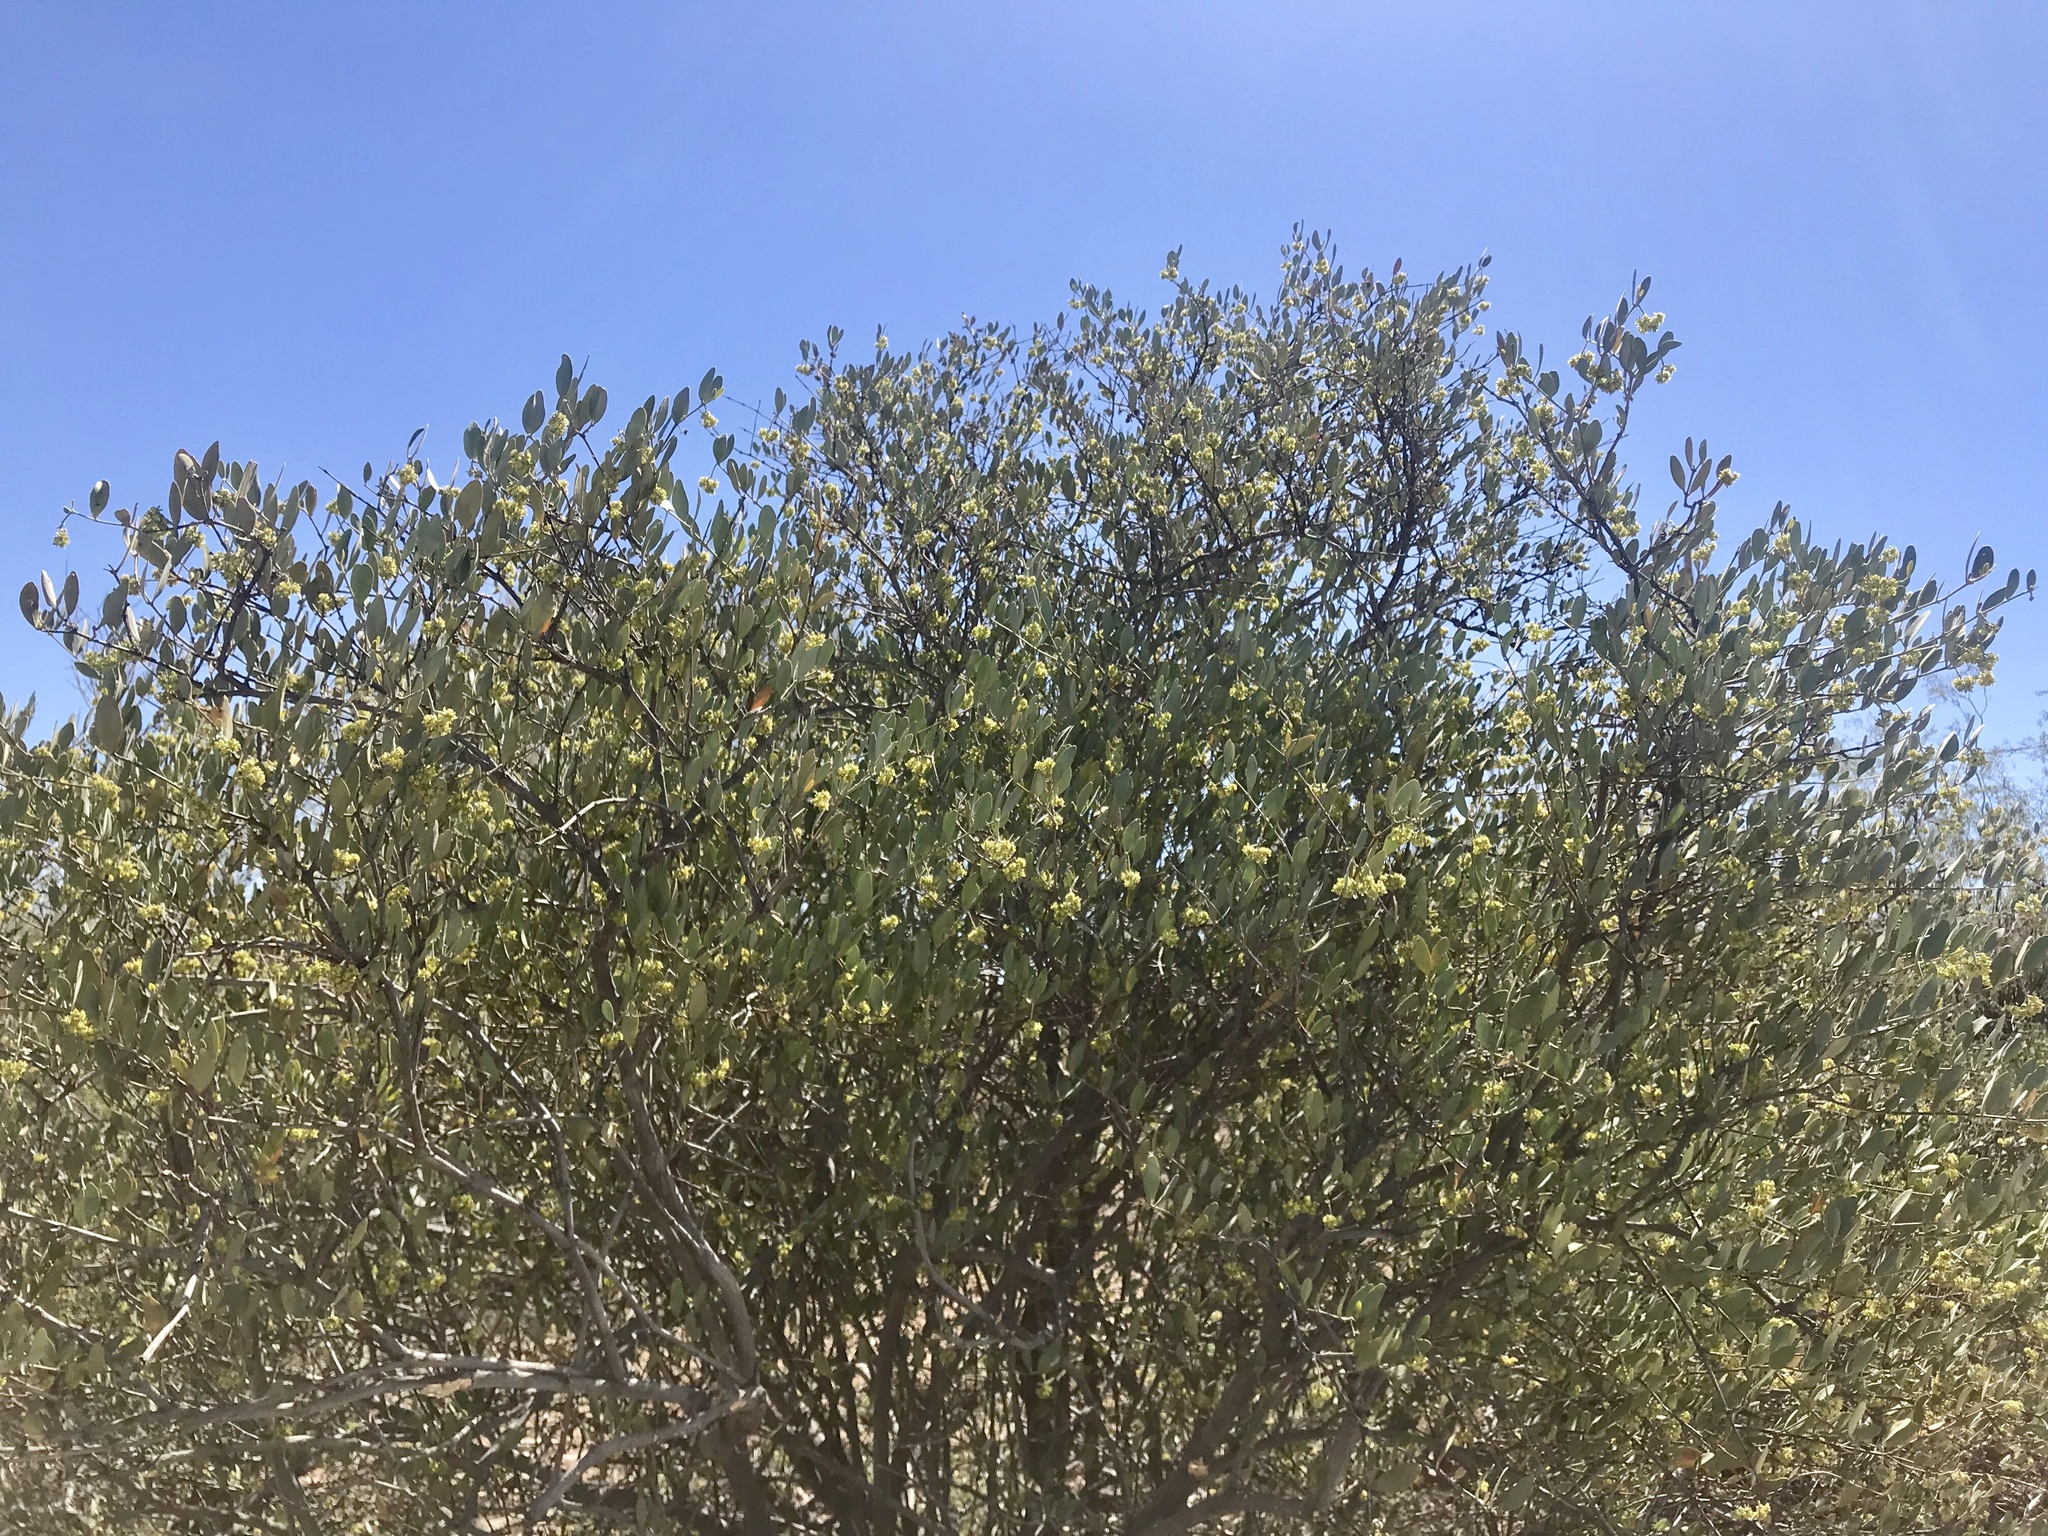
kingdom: Plantae
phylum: Tracheophyta
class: Magnoliopsida
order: Caryophyllales
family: Simmondsiaceae
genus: Simmondsia
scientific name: Simmondsia chinensis
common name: Jojoba
